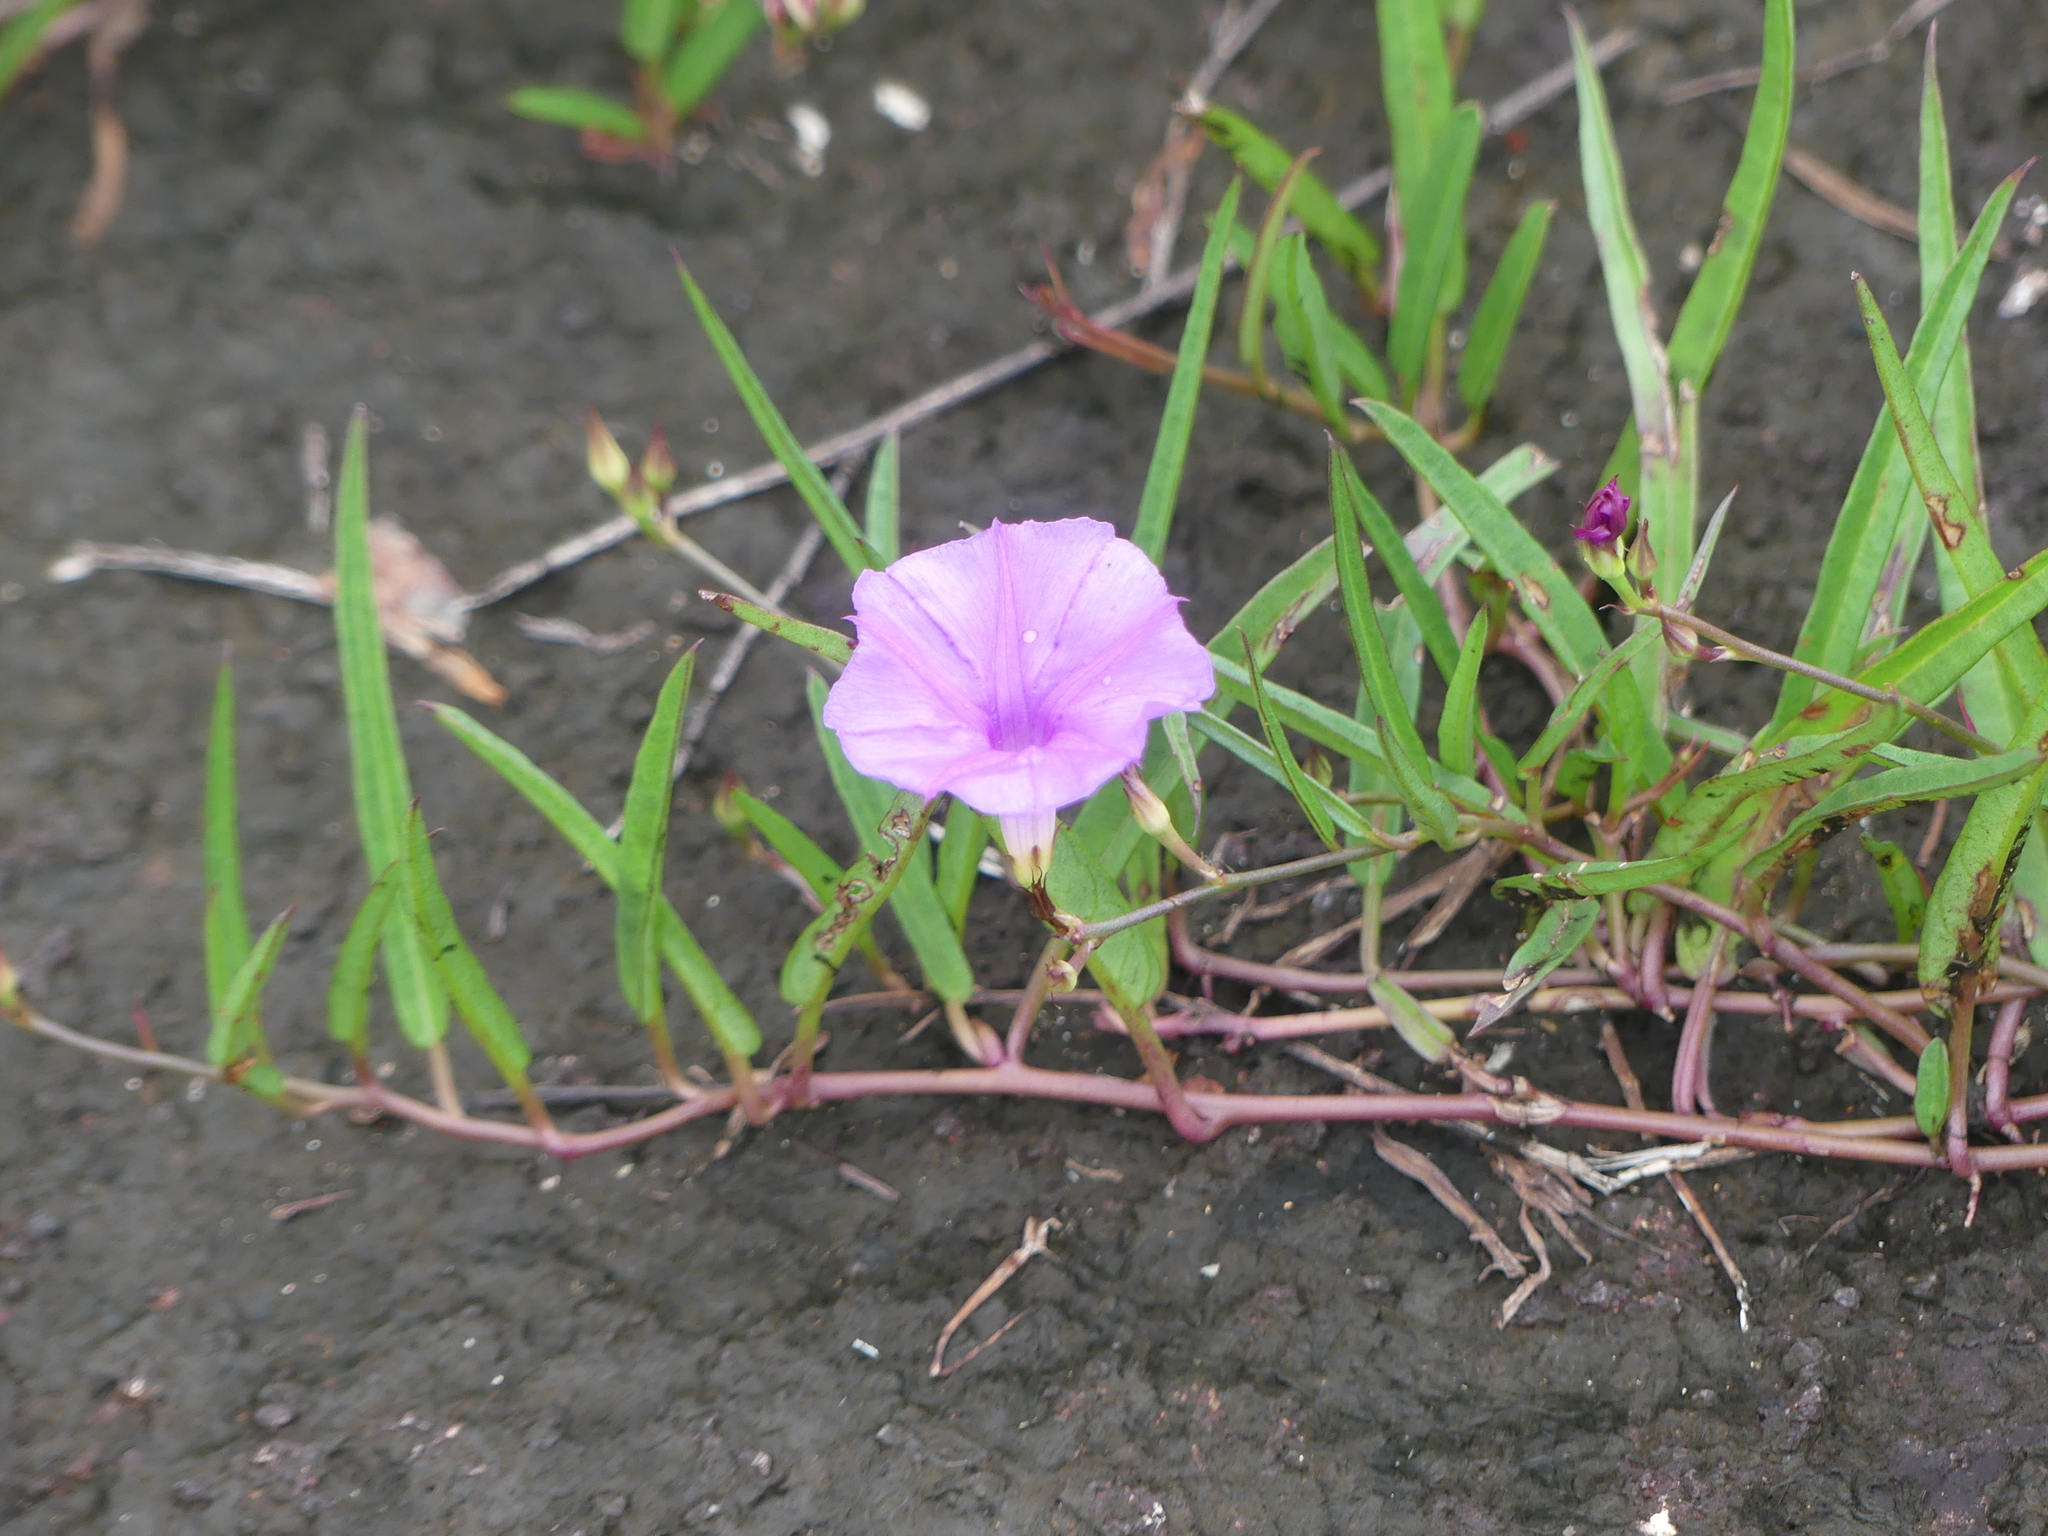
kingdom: Plantae
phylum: Tracheophyta
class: Magnoliopsida
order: Solanales
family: Convolvulaceae
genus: Ipomoea
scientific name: Ipomoea leprieurii
